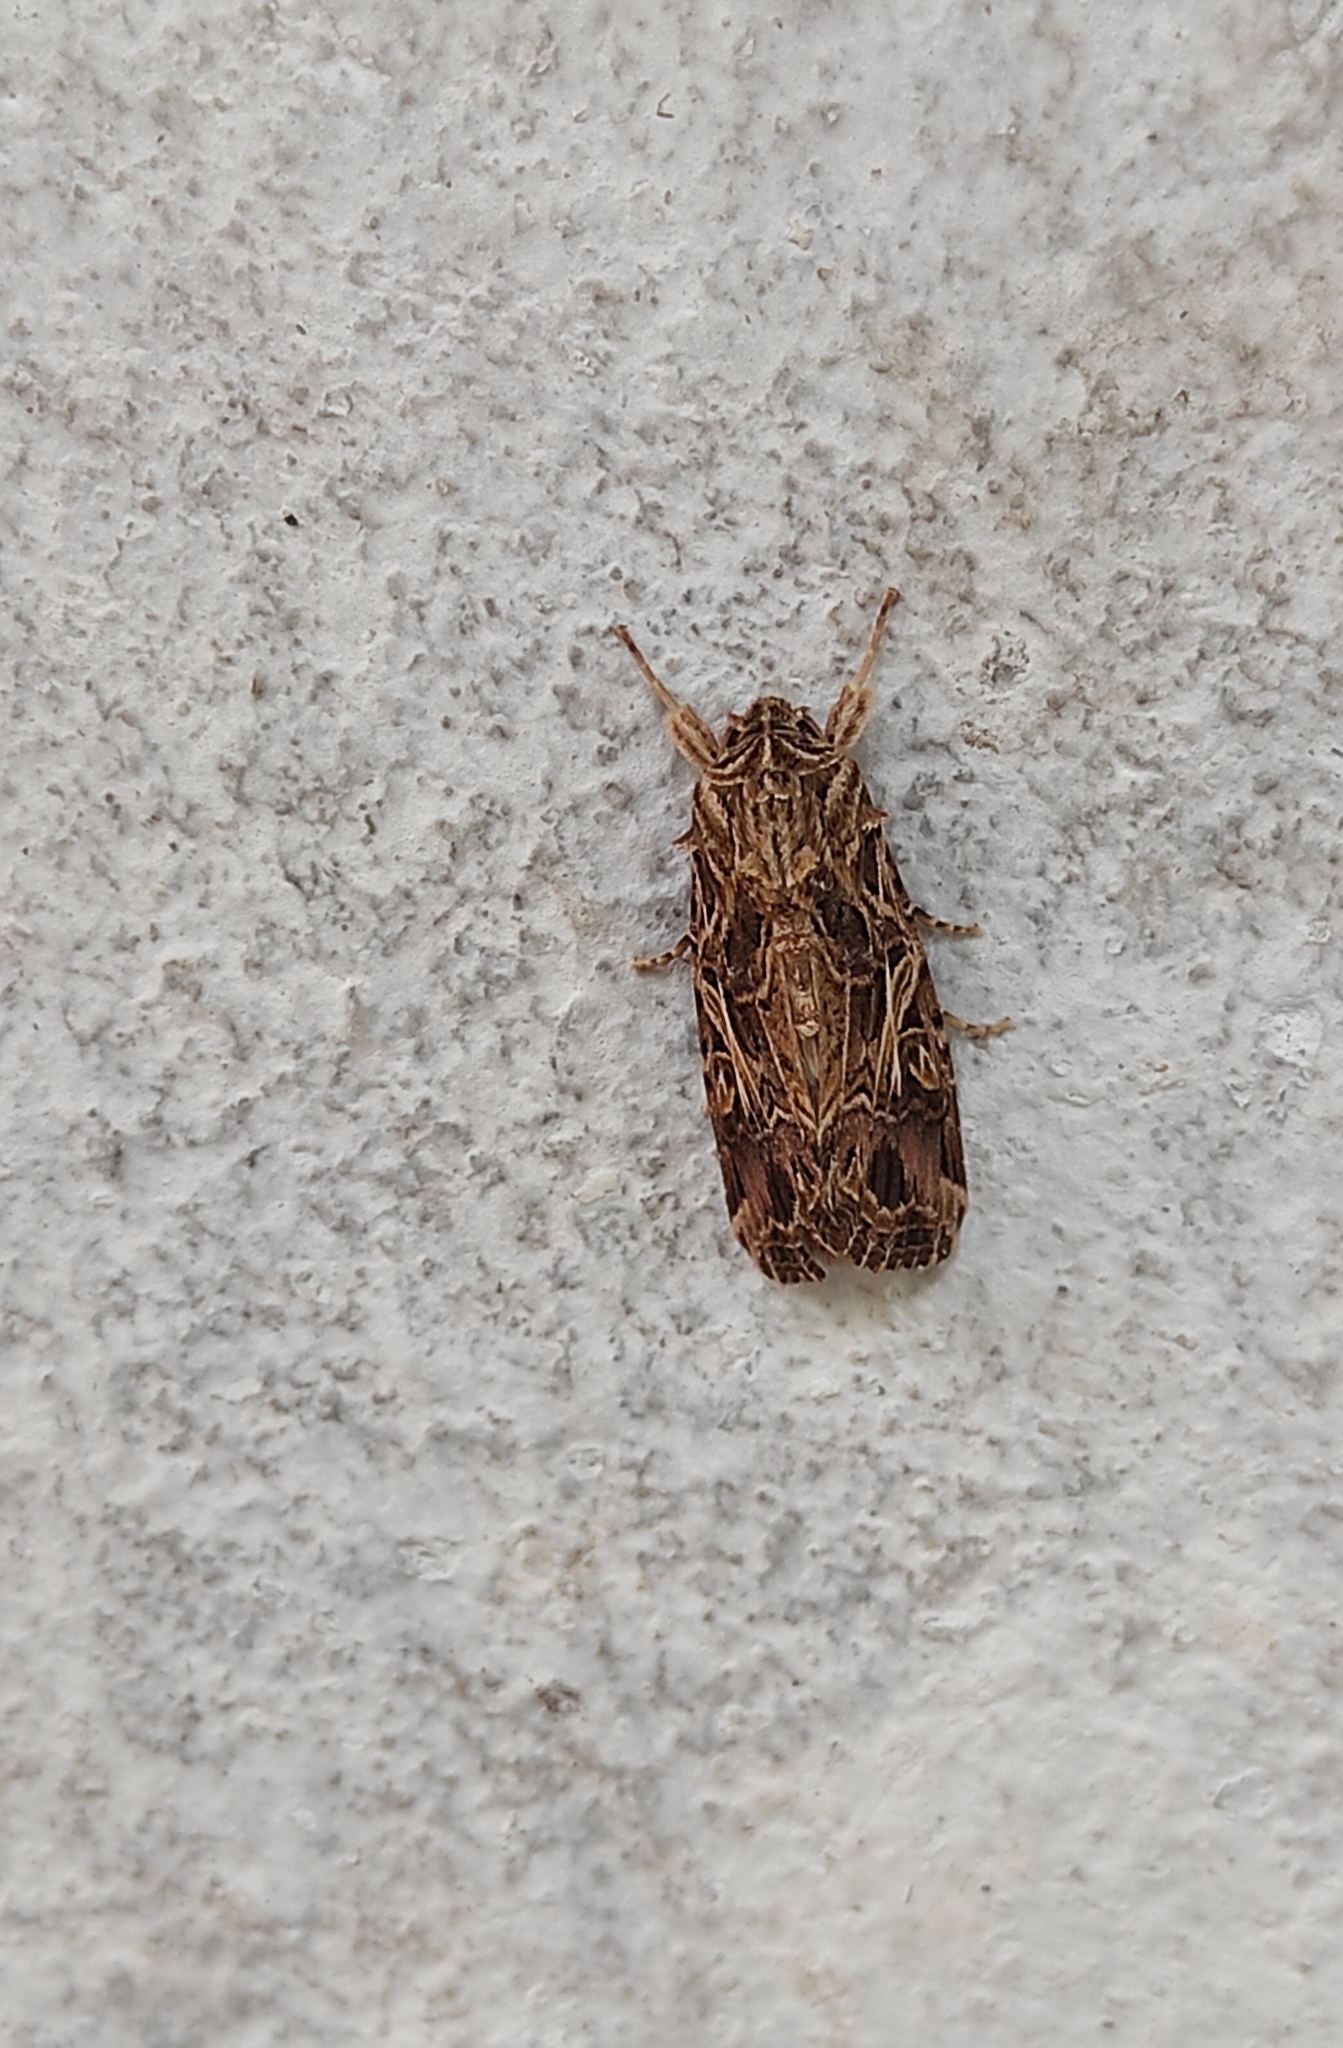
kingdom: Animalia
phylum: Arthropoda
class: Insecta
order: Lepidoptera
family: Noctuidae
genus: Spodoptera
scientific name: Spodoptera litura
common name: Asian cotton leafworm
